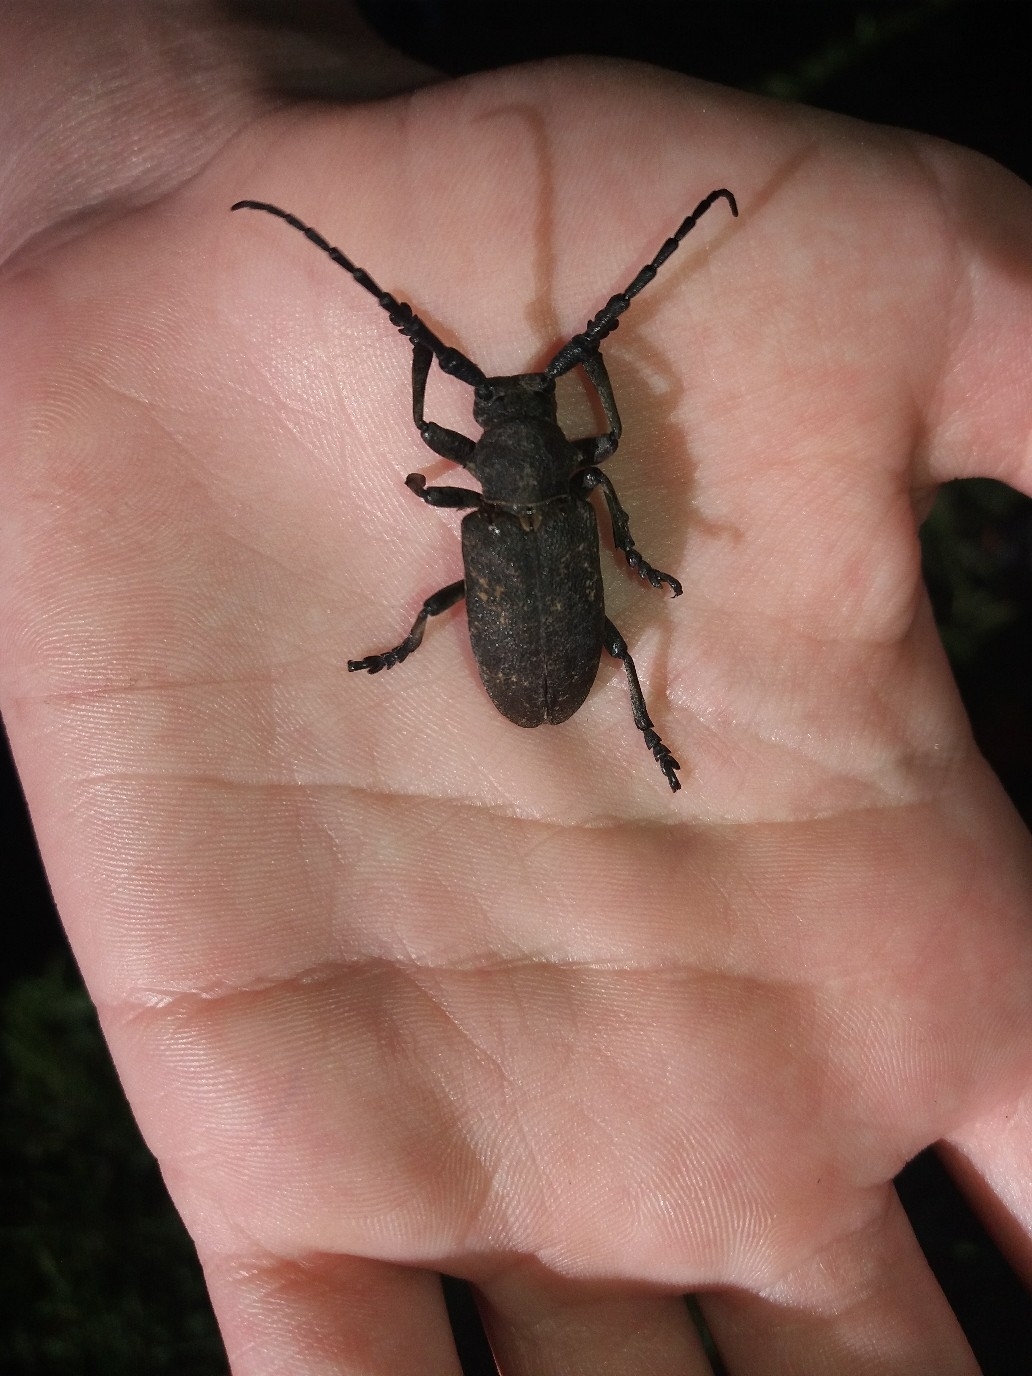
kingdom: Animalia
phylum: Arthropoda
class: Insecta
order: Coleoptera
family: Cerambycidae
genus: Lamia
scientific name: Lamia textor
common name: Weaver beetle
